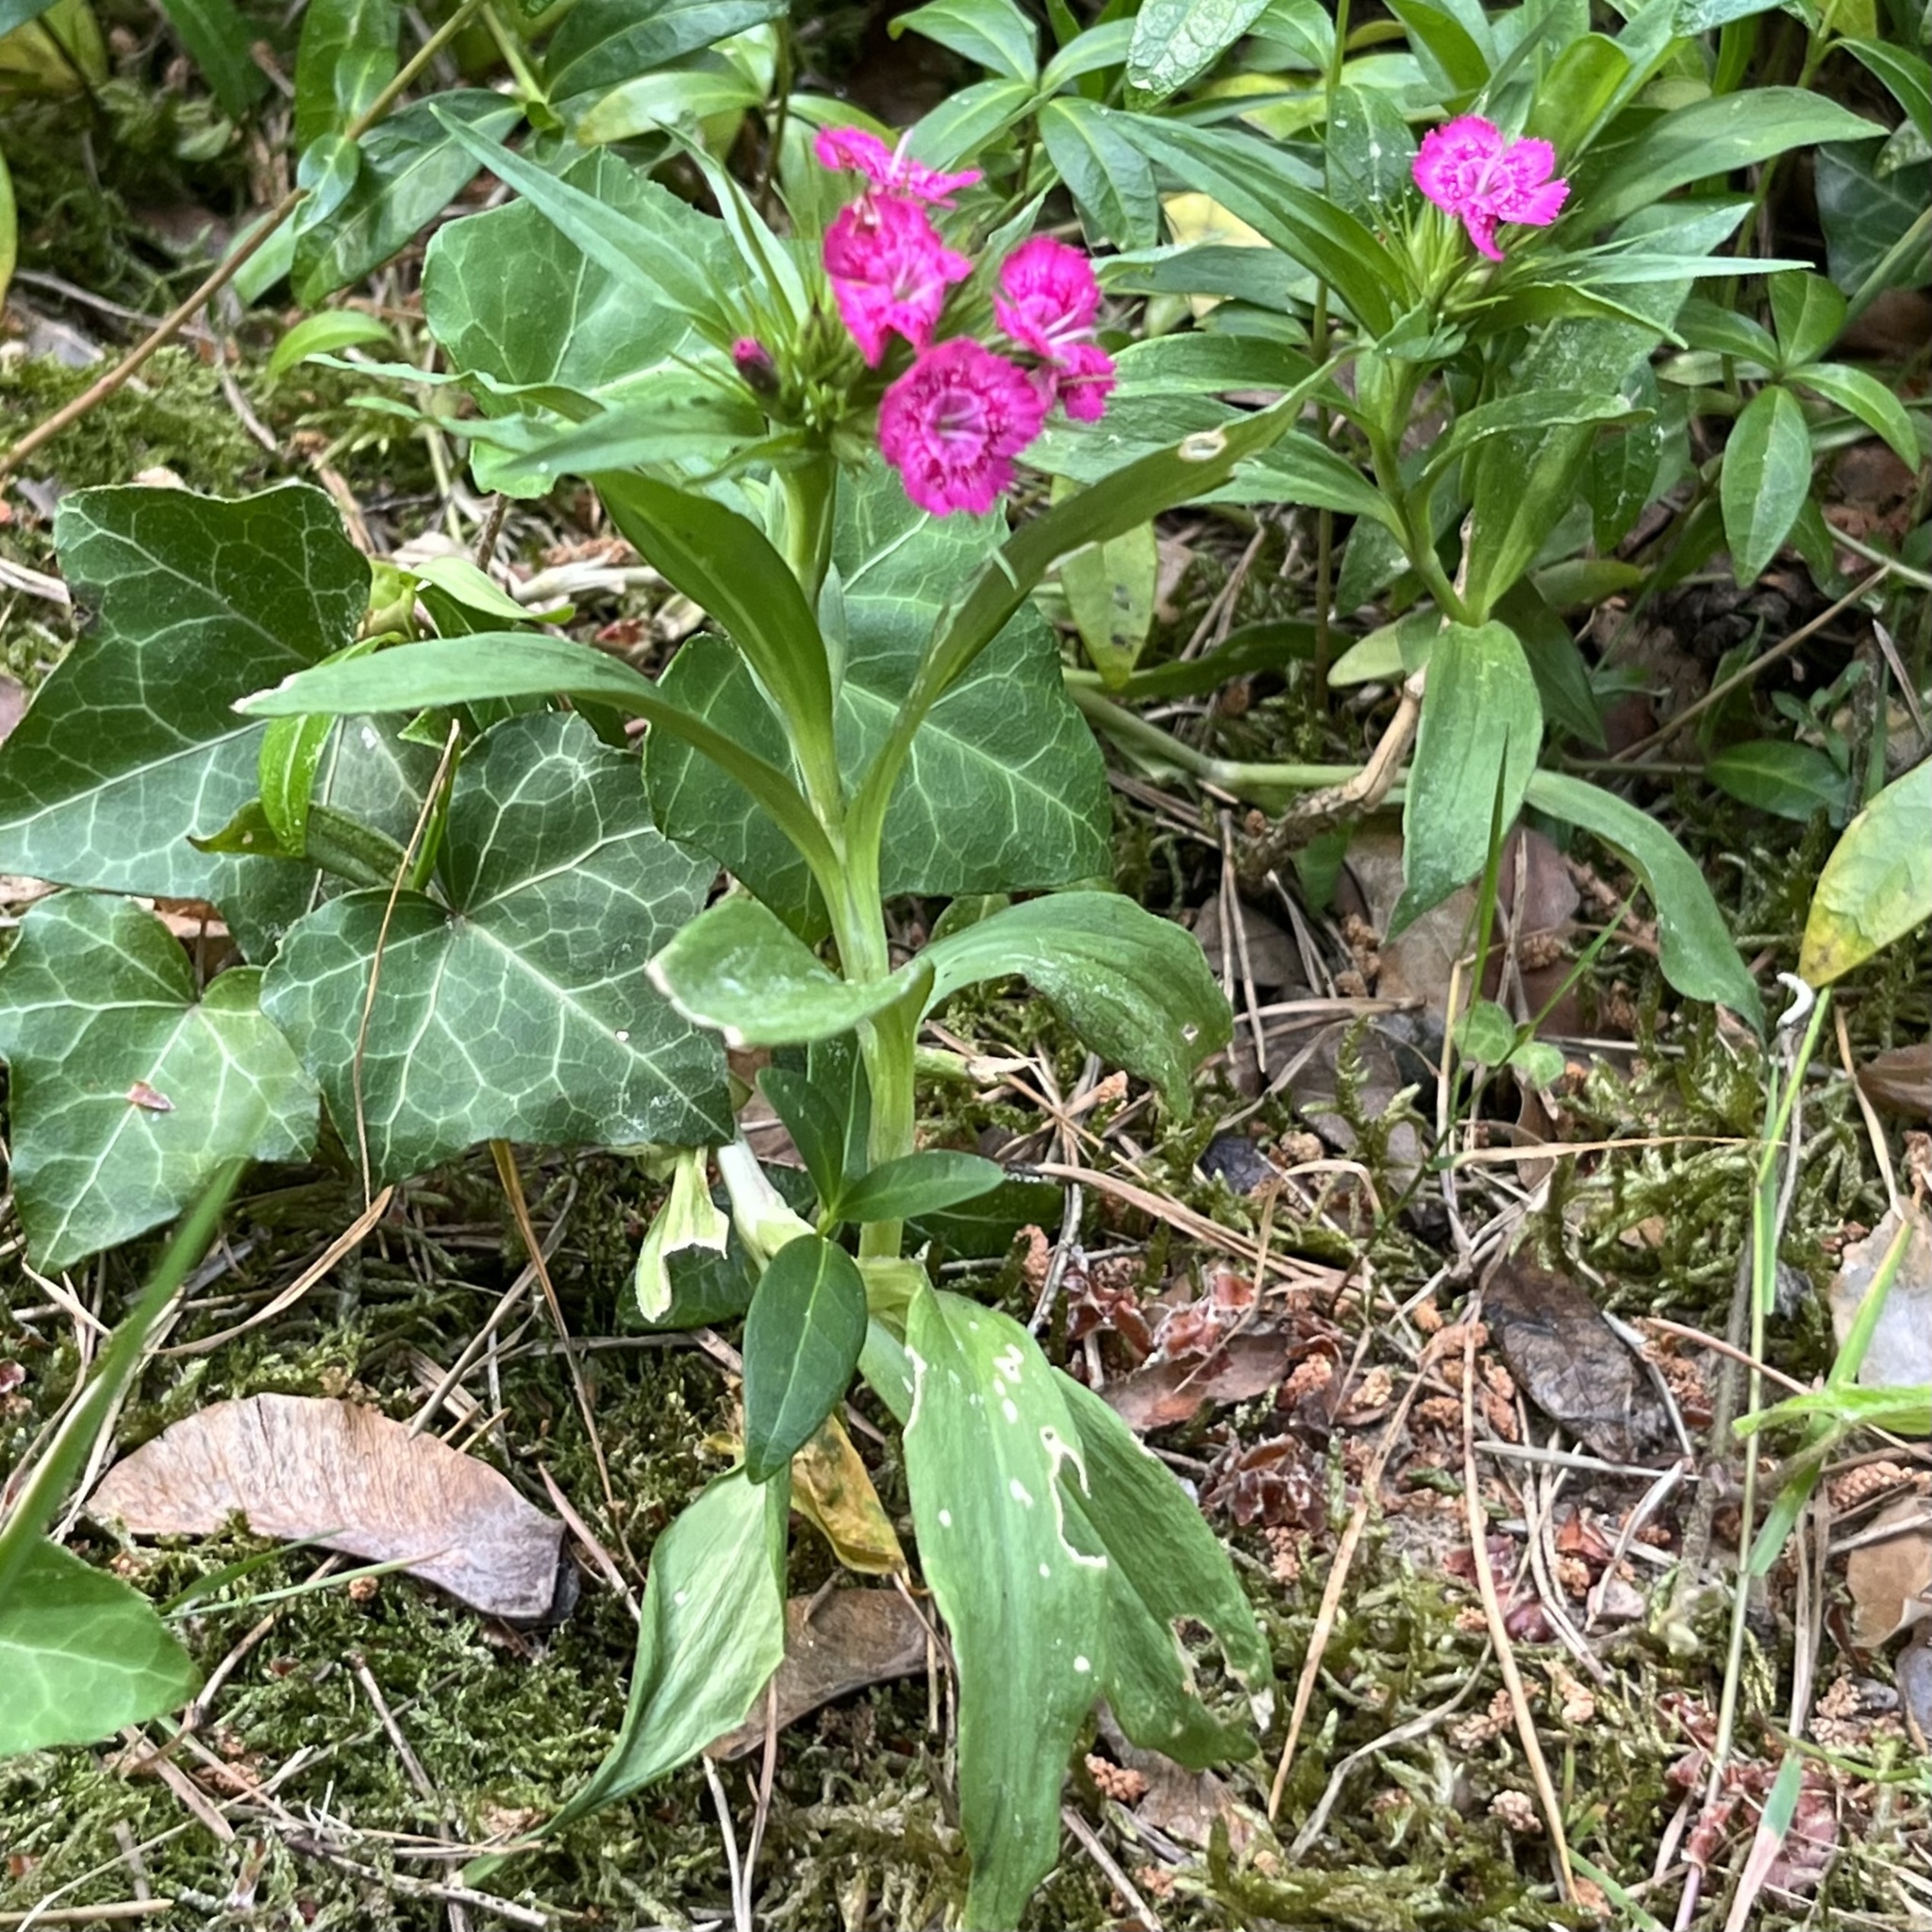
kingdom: Plantae
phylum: Tracheophyta
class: Magnoliopsida
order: Caryophyllales
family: Caryophyllaceae
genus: Dianthus
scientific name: Dianthus barbatus
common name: Sweet-william
